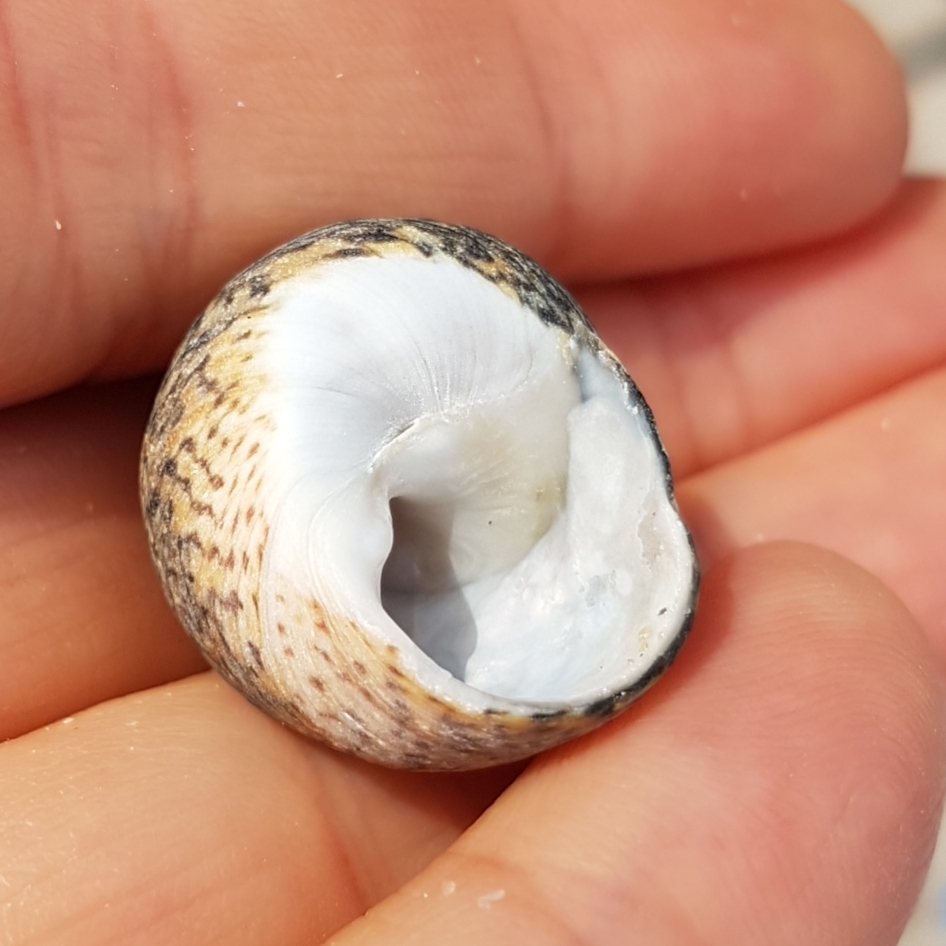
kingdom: Animalia
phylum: Mollusca
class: Gastropoda
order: Trochida
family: Trochidae
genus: Phorcus
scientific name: Phorcus lineatus
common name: Toothed top shell
